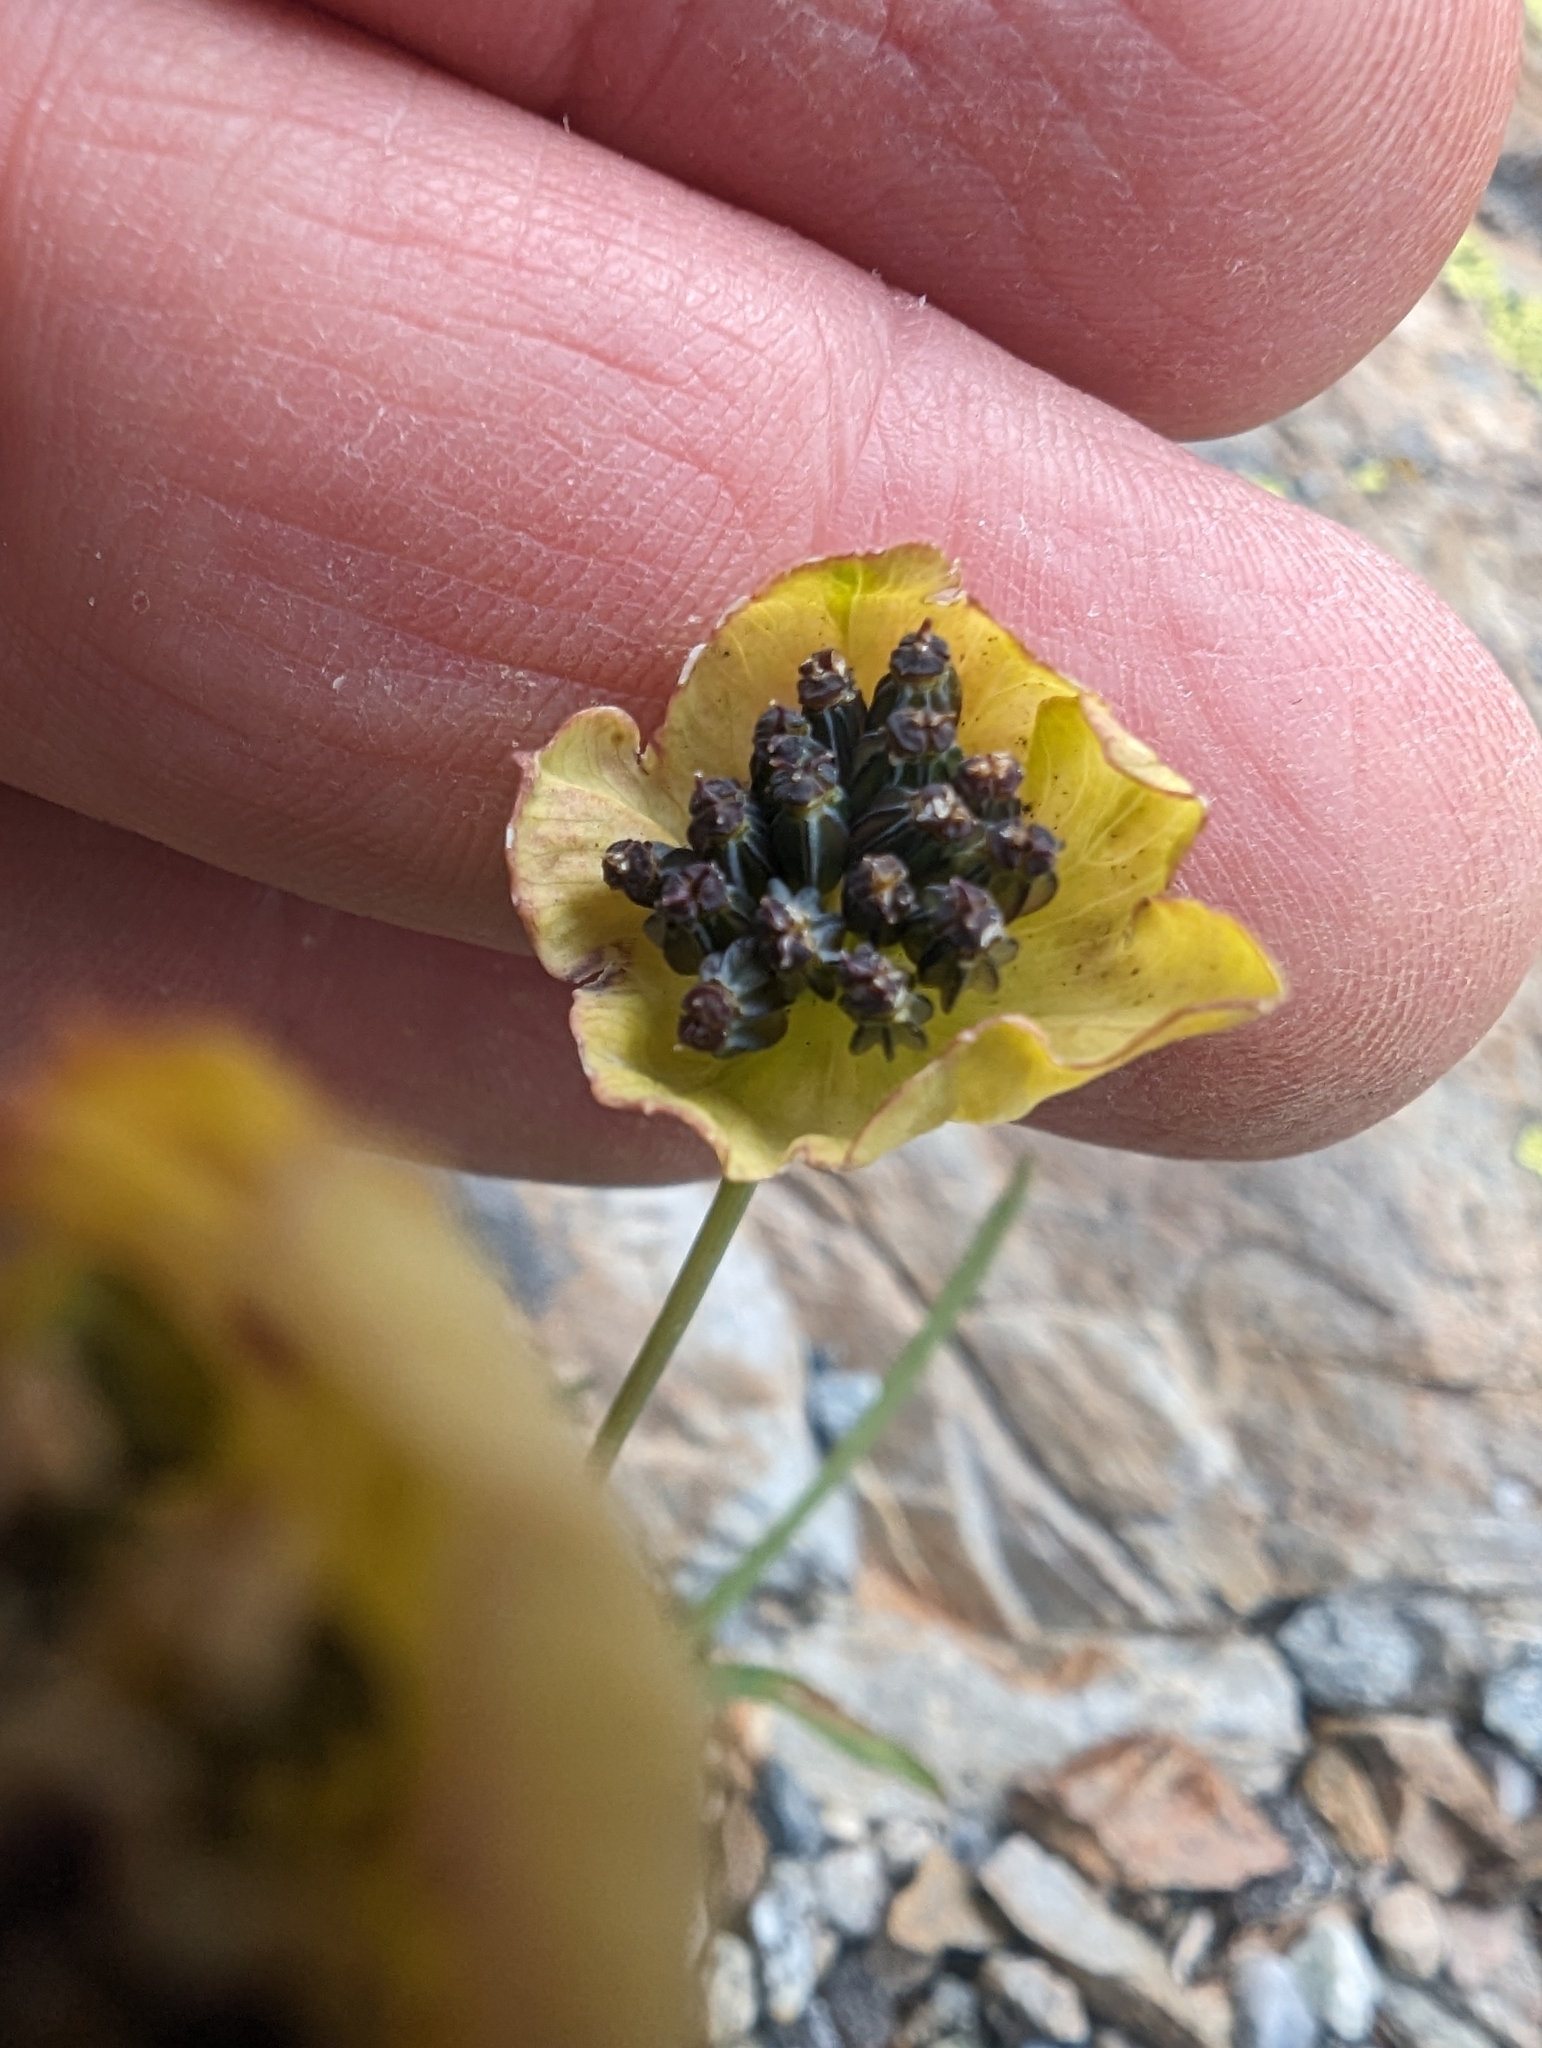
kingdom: Plantae
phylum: Tracheophyta
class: Magnoliopsida
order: Apiales
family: Apiaceae
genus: Bupleurum
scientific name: Bupleurum stellatum
